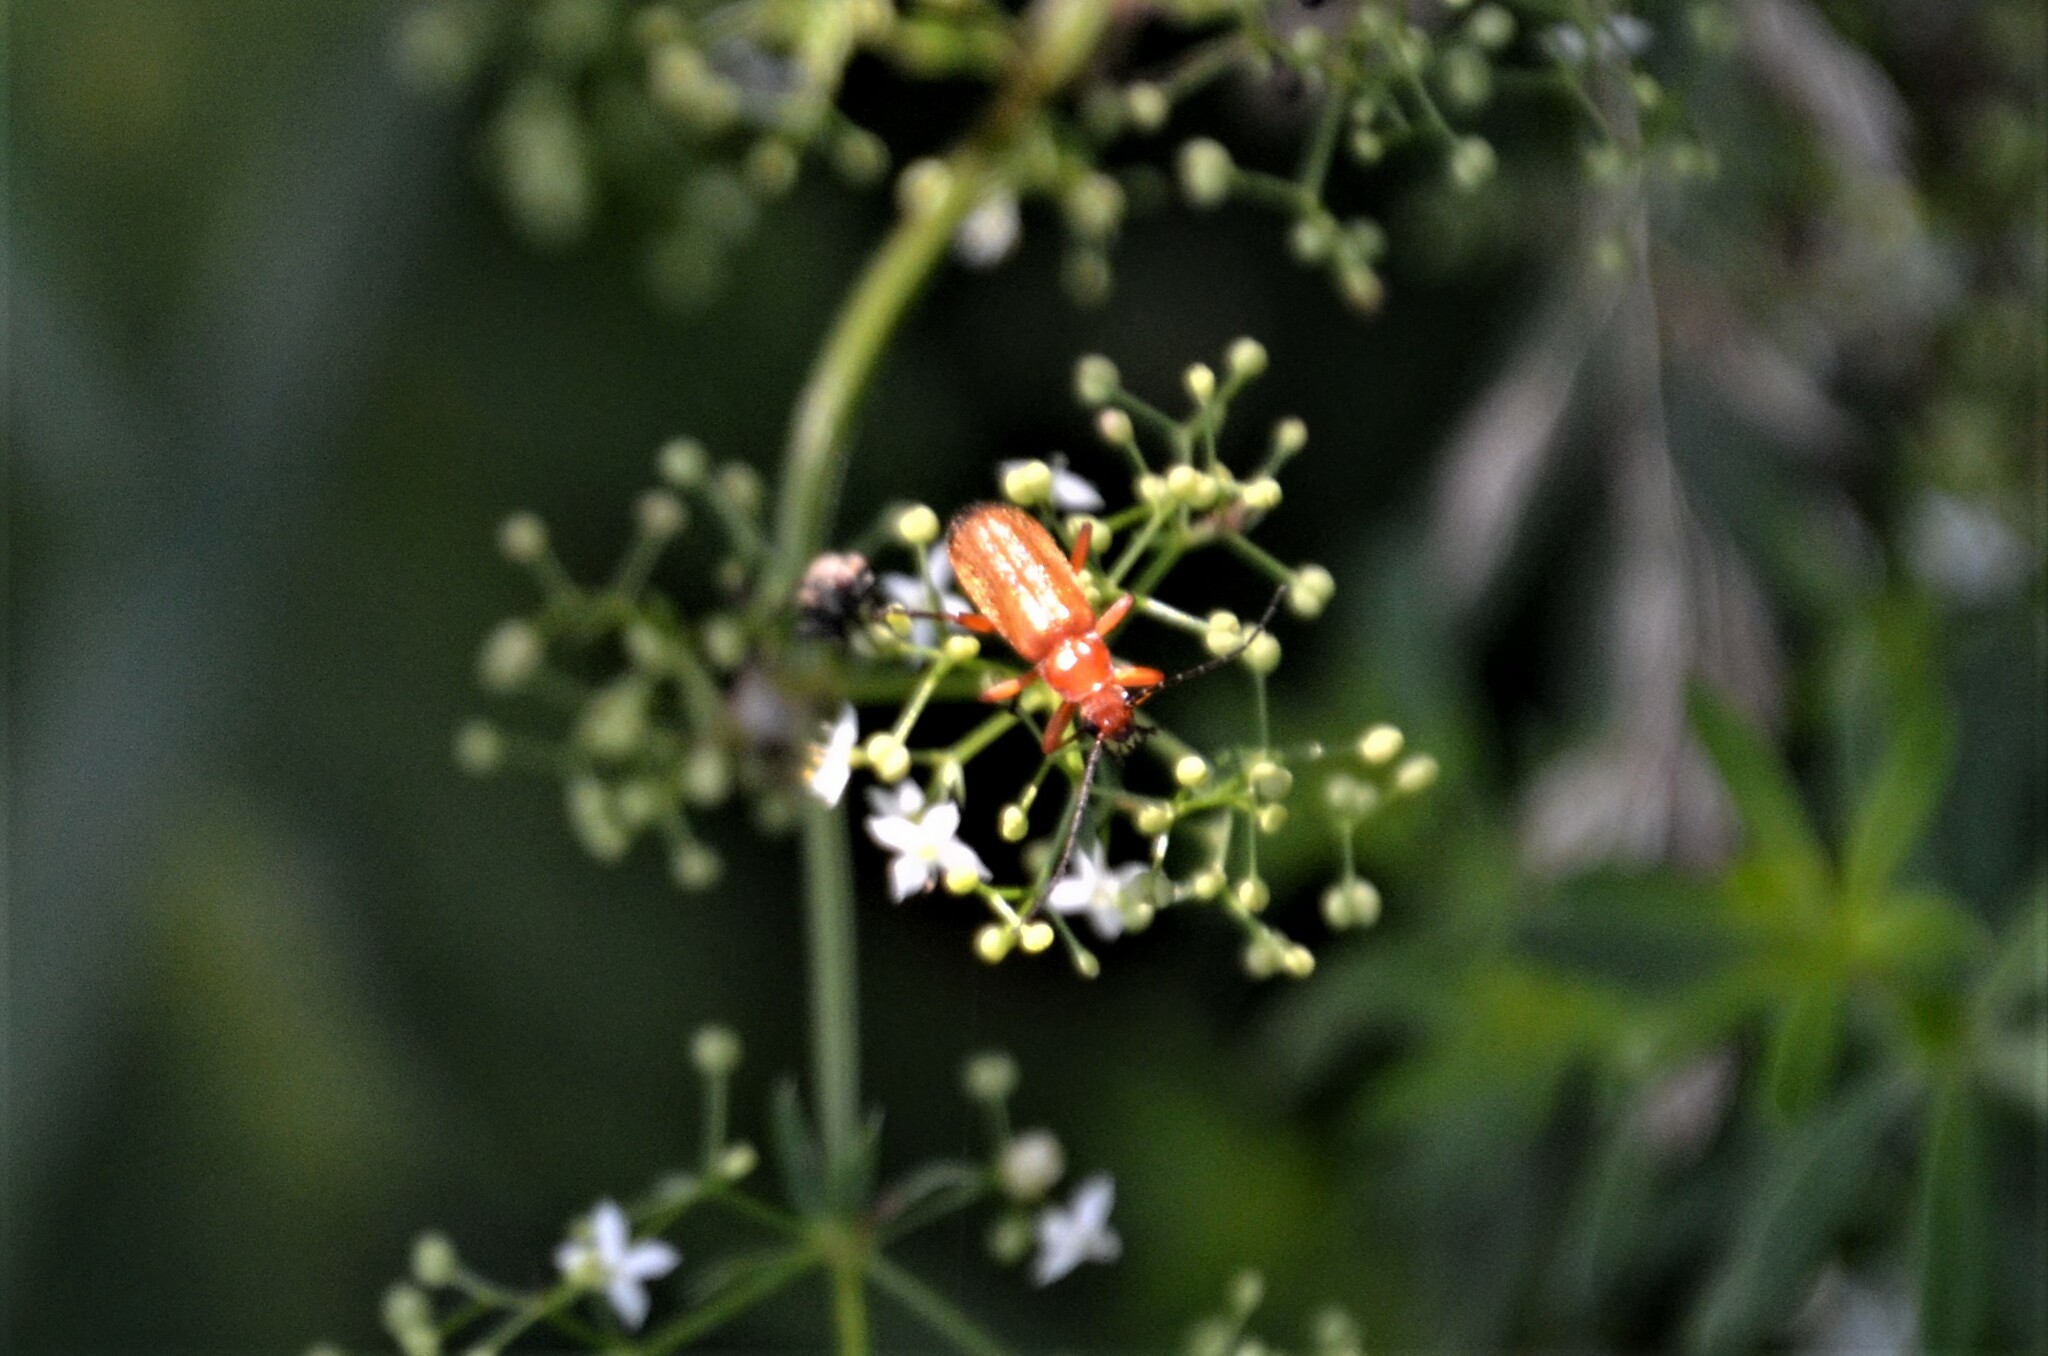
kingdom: Animalia
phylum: Arthropoda
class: Insecta
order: Coleoptera
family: Cantharidae
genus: Rhagonycha
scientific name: Rhagonycha fulva
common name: Common red soldier beetle
